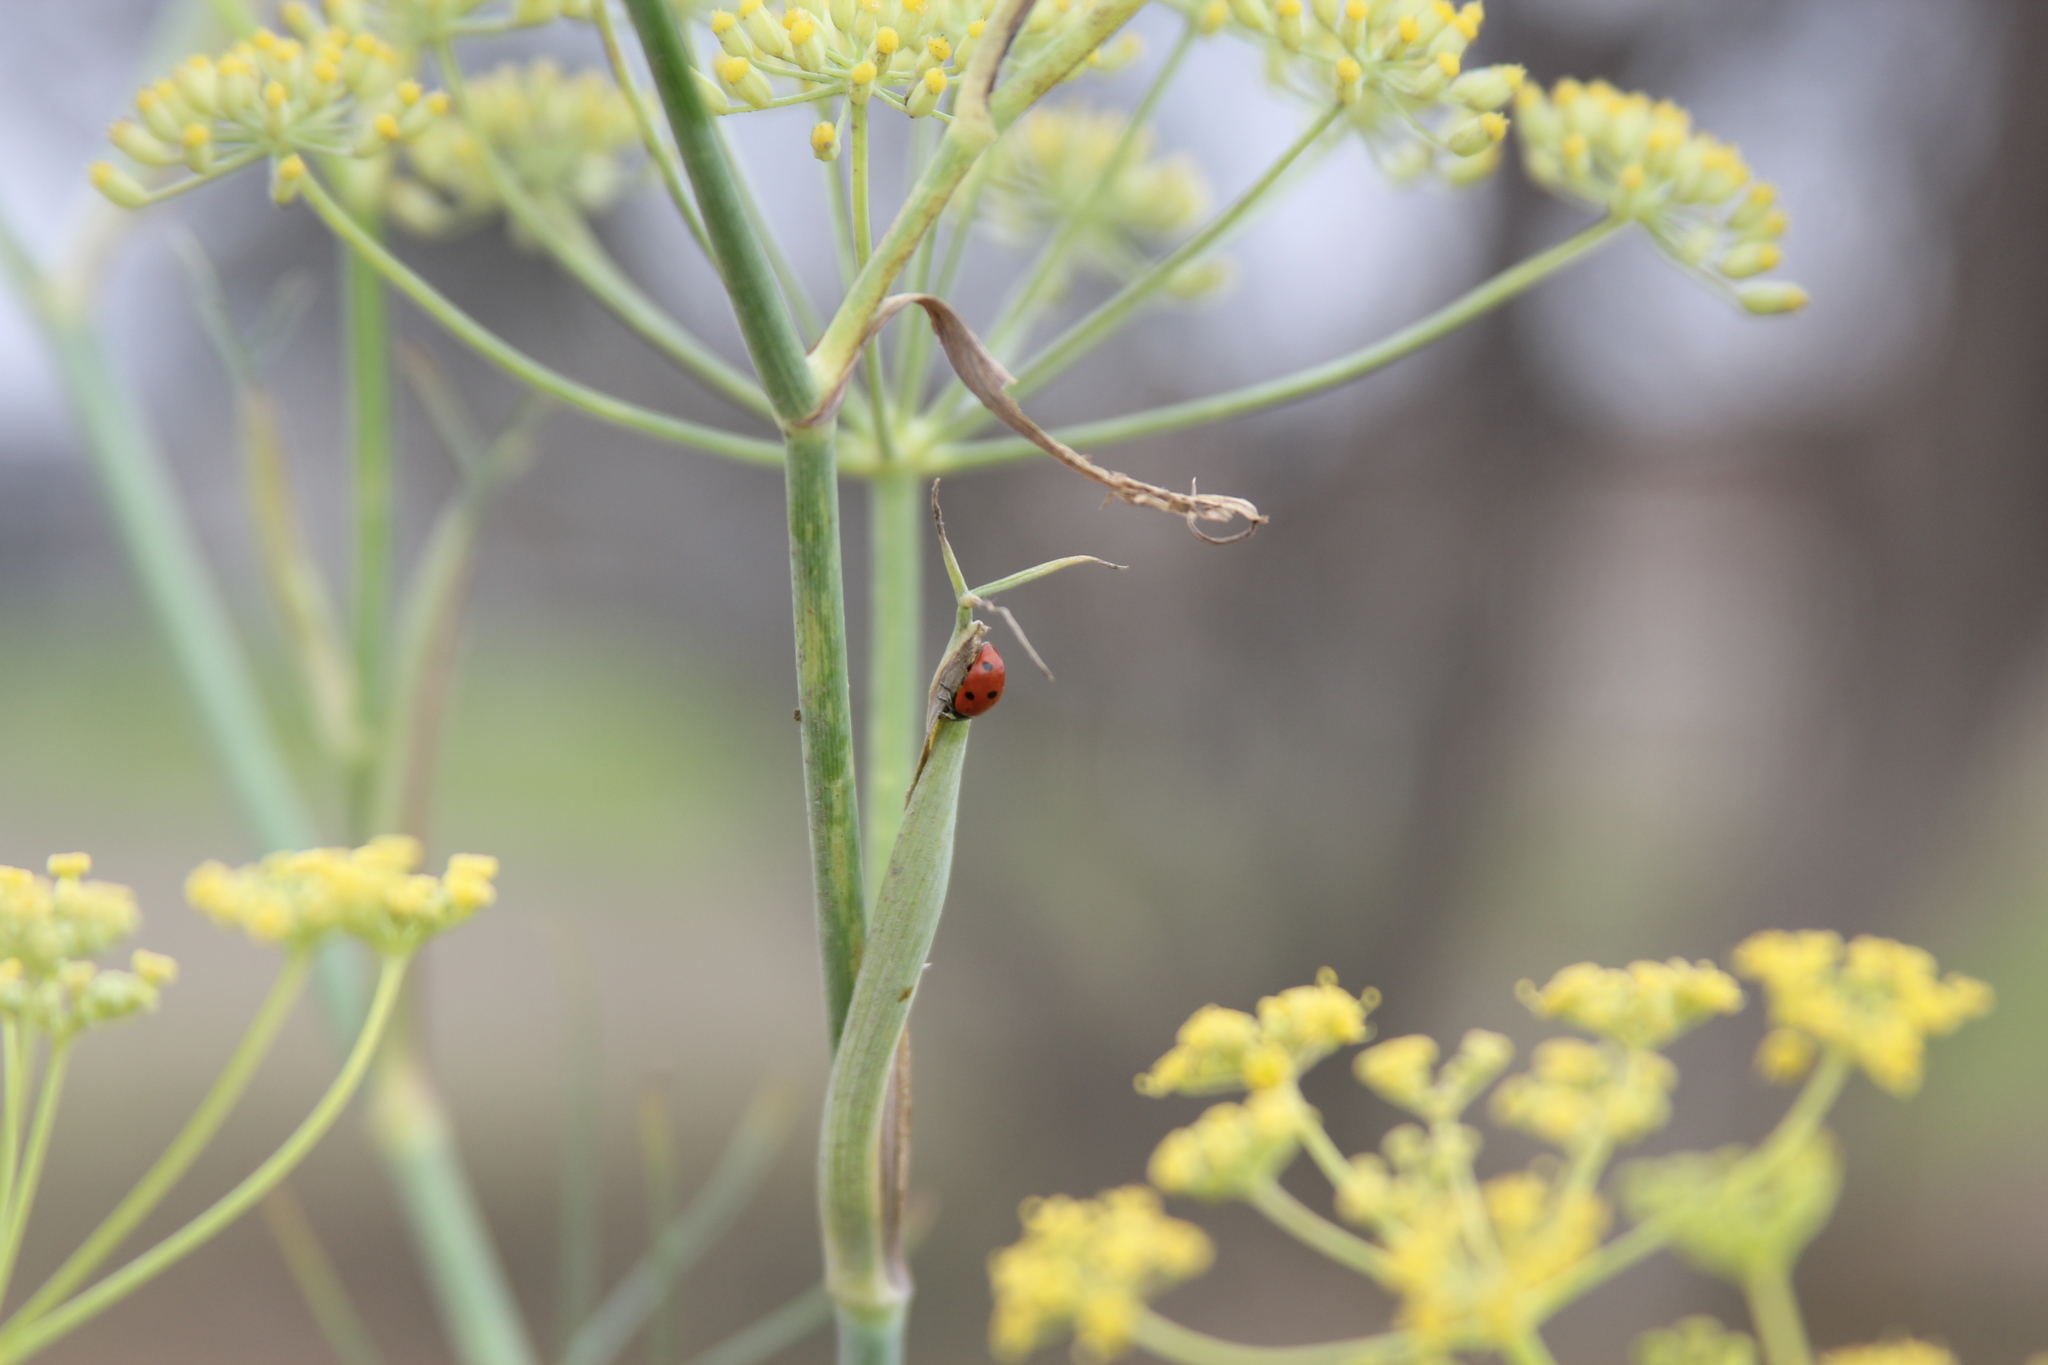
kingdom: Animalia
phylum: Arthropoda
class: Insecta
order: Coleoptera
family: Coccinellidae
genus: Coccinella
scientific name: Coccinella septempunctata
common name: Sevenspotted lady beetle
